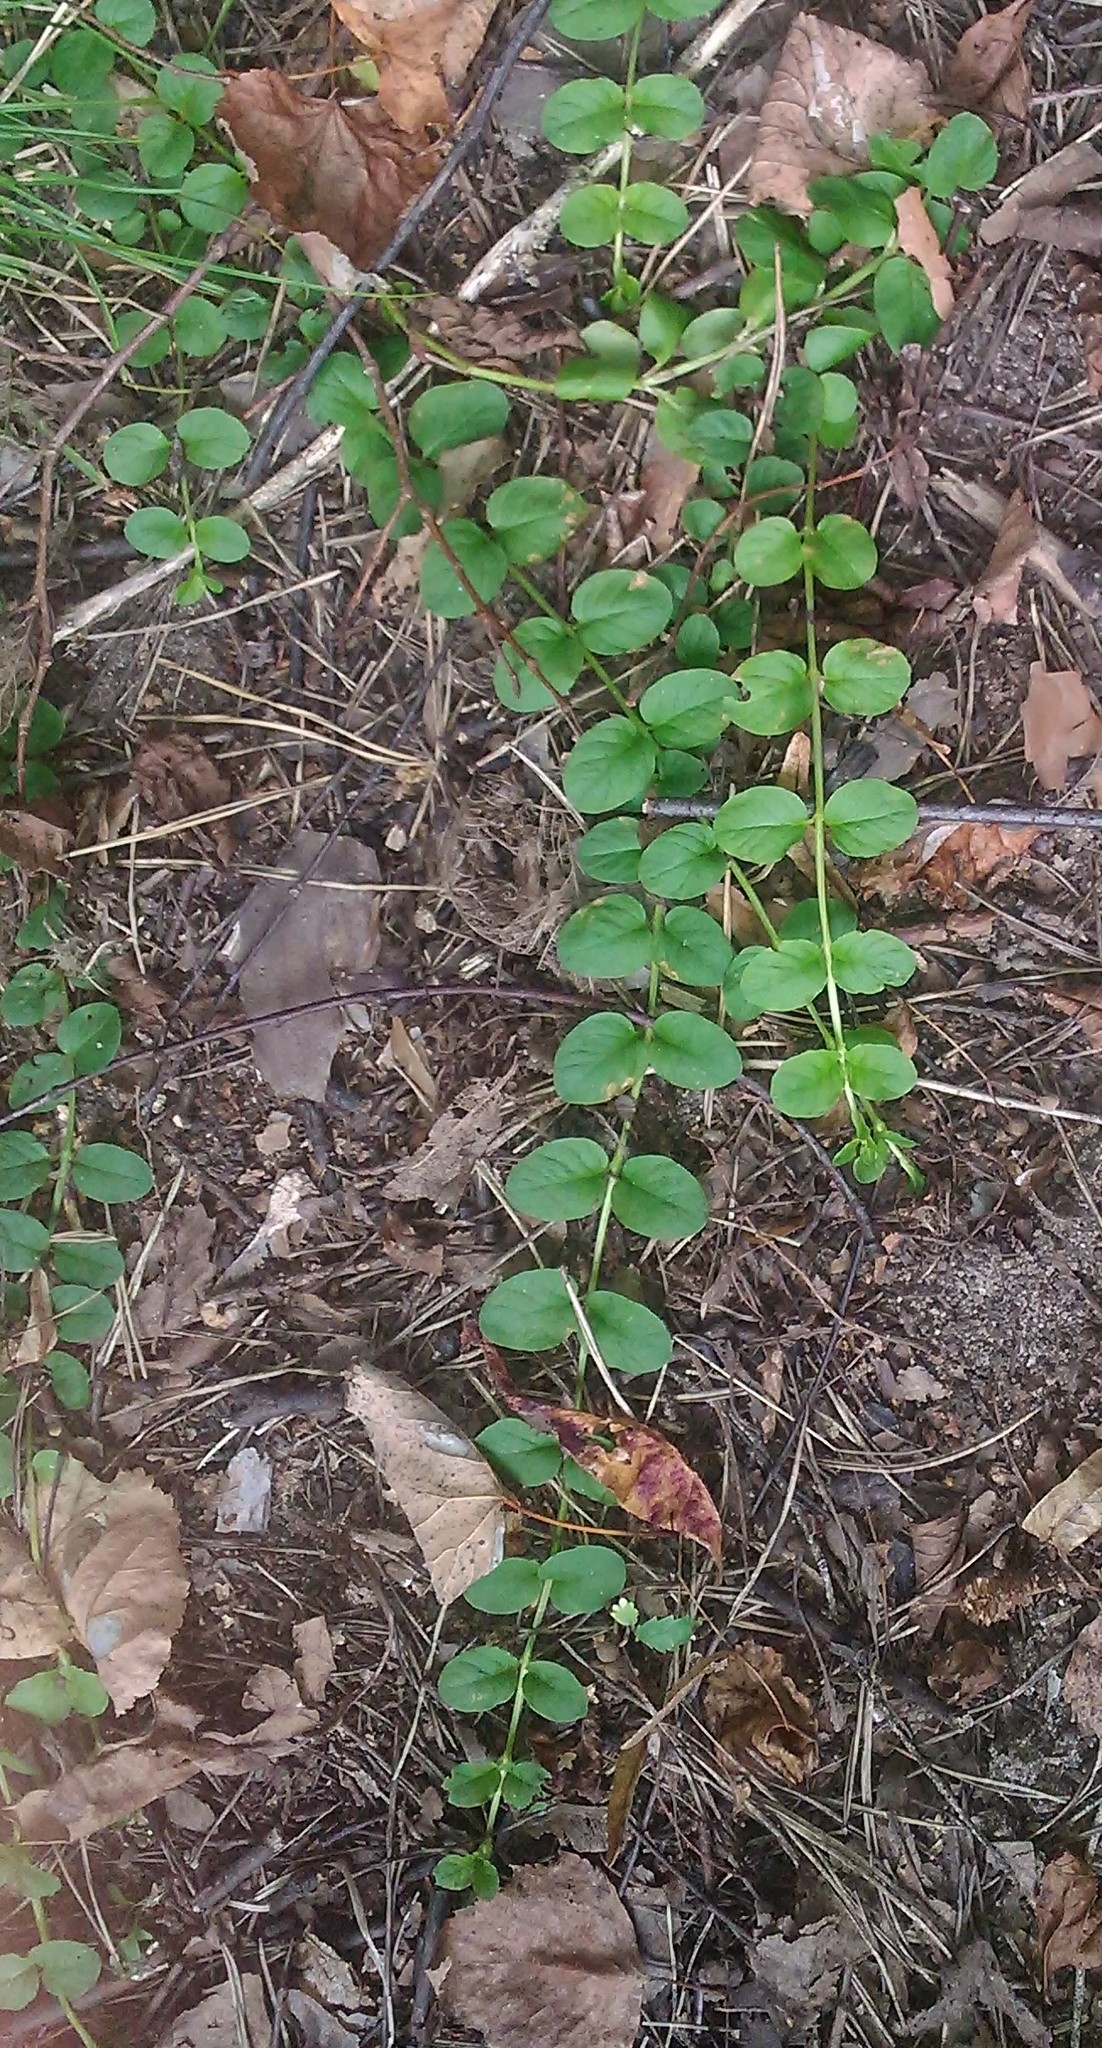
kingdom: Plantae
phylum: Tracheophyta
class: Magnoliopsida
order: Ericales
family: Primulaceae
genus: Lysimachia
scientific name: Lysimachia nummularia
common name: Moneywort
